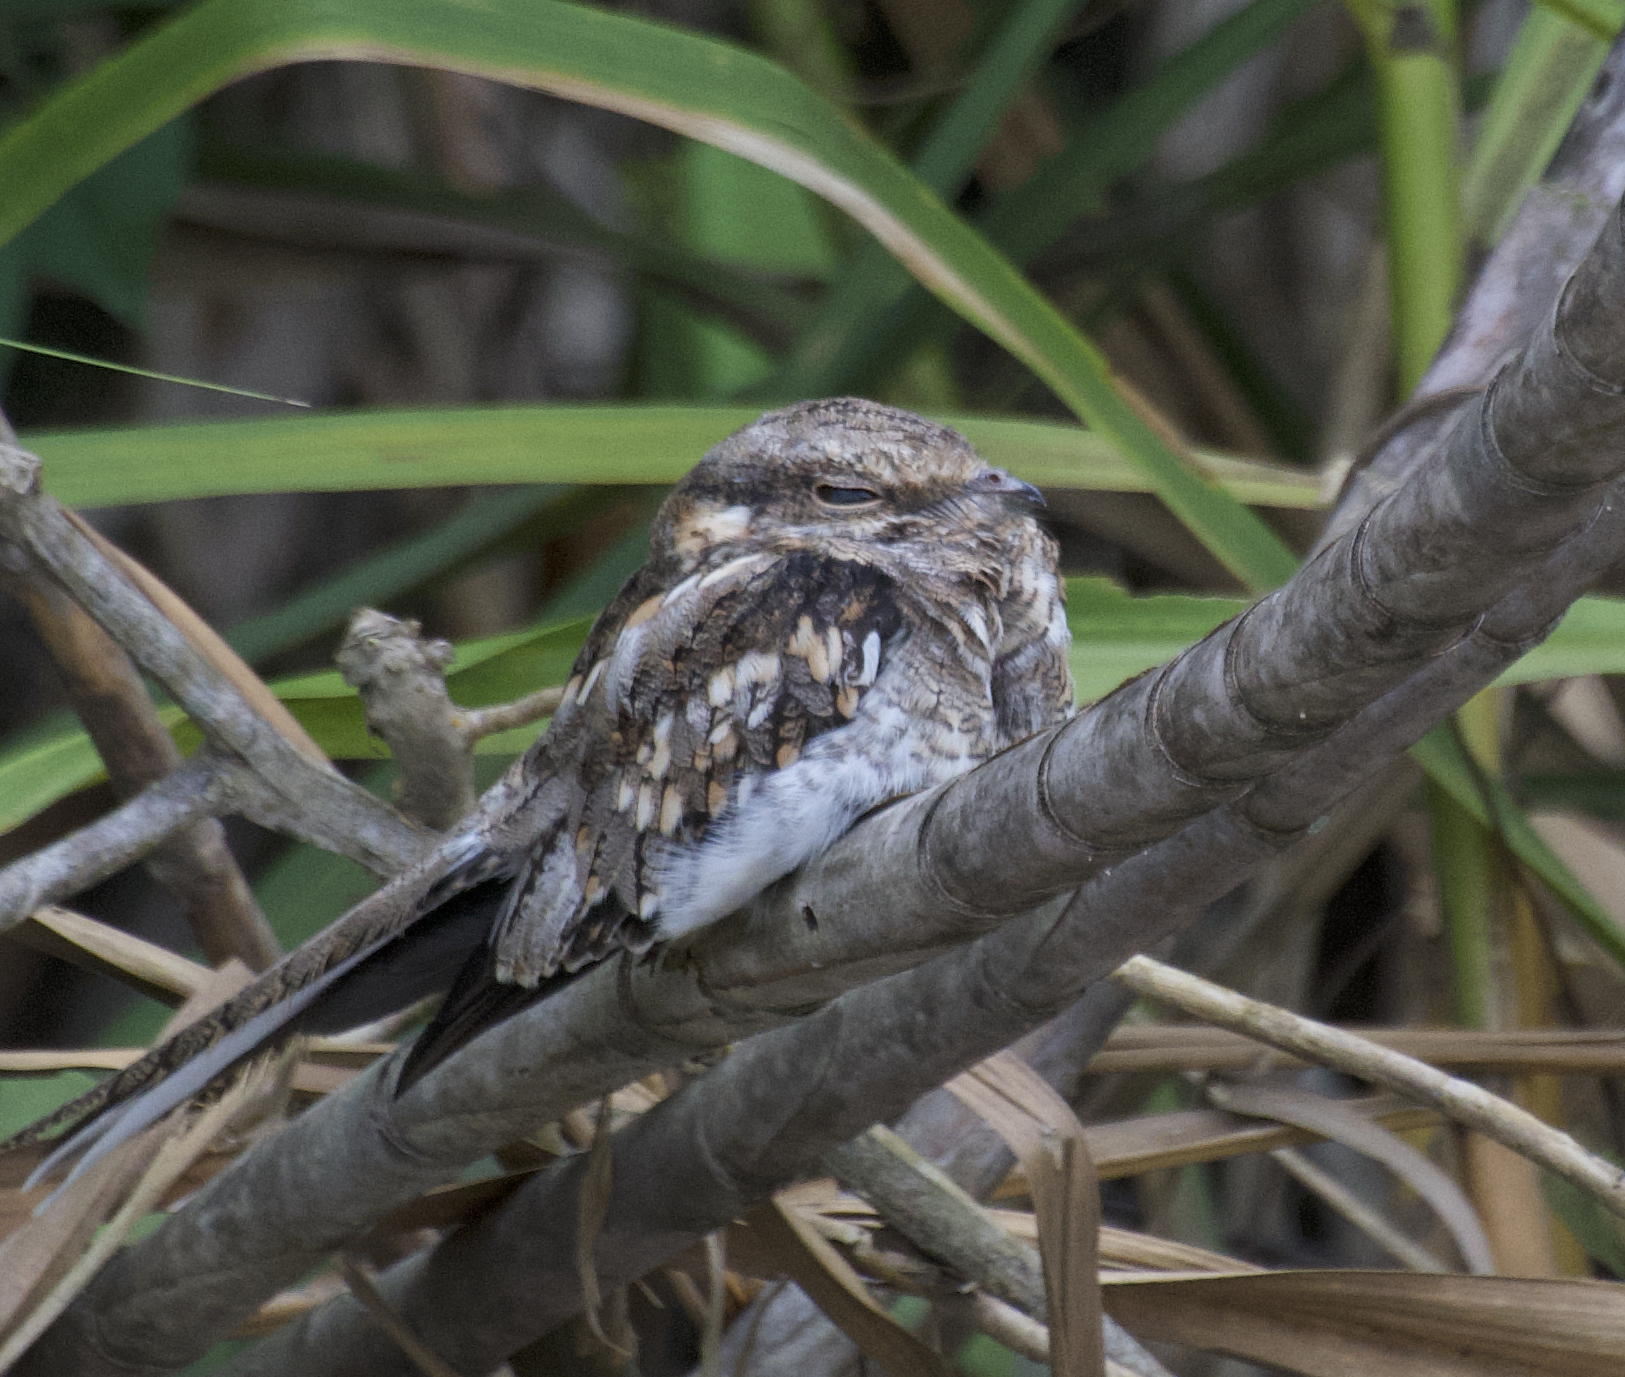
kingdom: Animalia
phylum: Chordata
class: Aves
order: Caprimulgiformes
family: Caprimulgidae
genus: Hydropsalis
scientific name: Hydropsalis climacocerca
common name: Ladder-tailed nightjar
